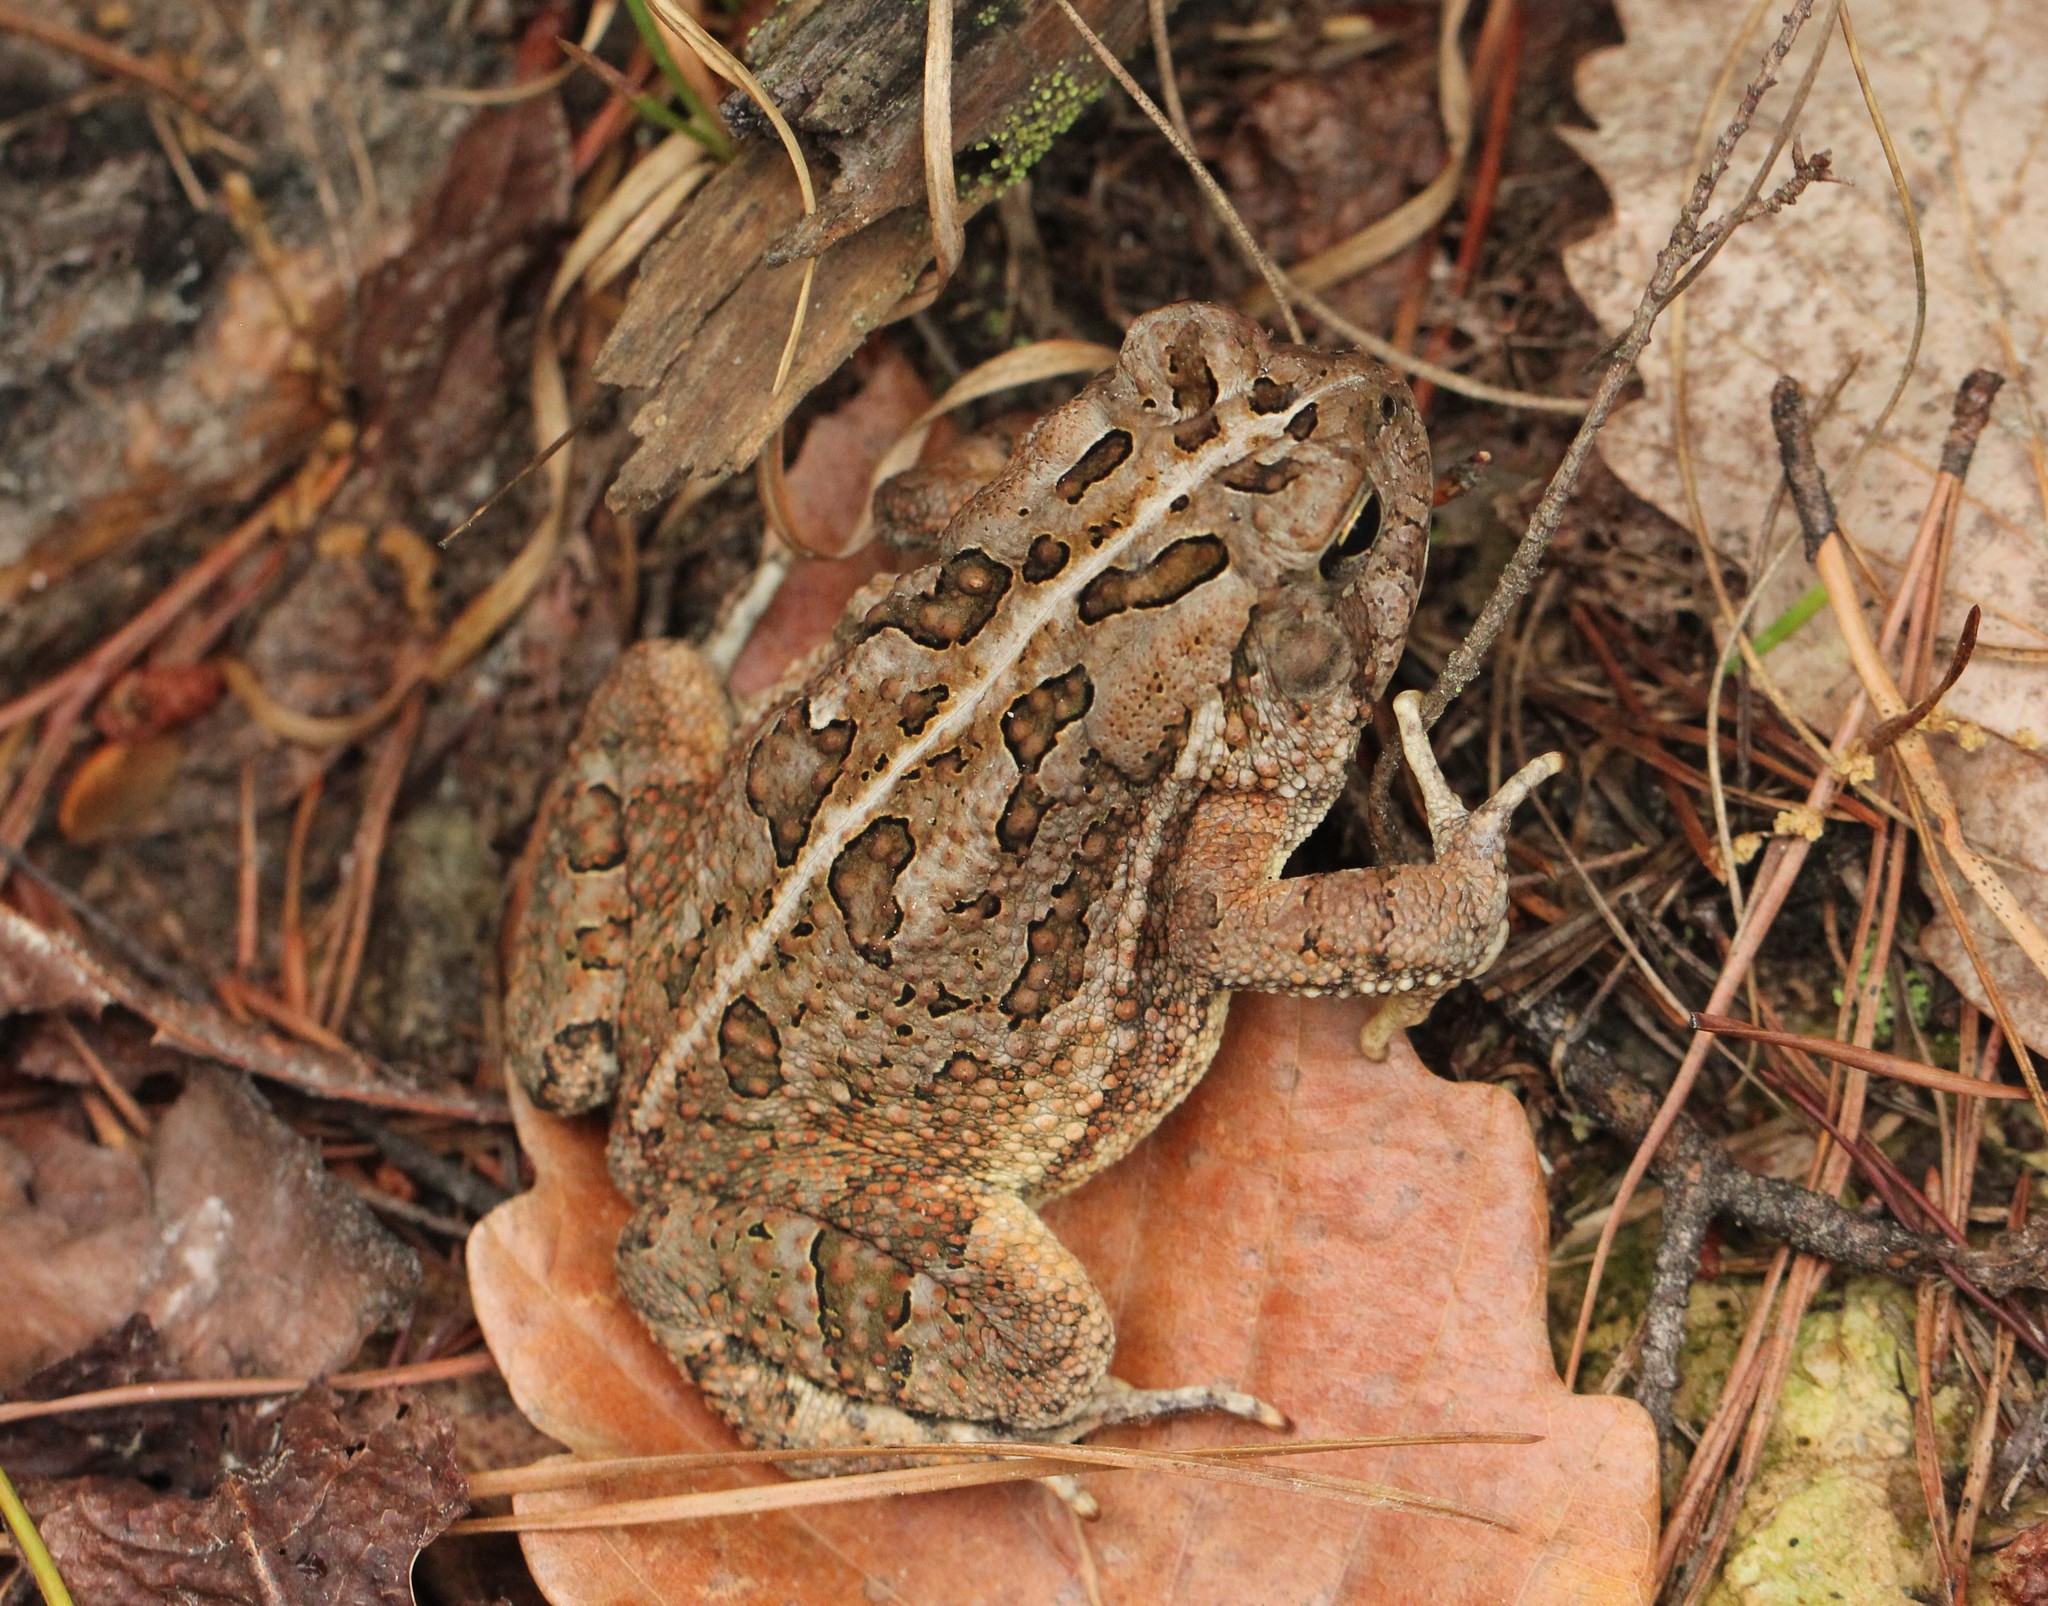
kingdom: Animalia
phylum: Chordata
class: Amphibia
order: Anura
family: Bufonidae
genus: Anaxyrus
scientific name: Anaxyrus fowleri
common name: Fowler's toad
